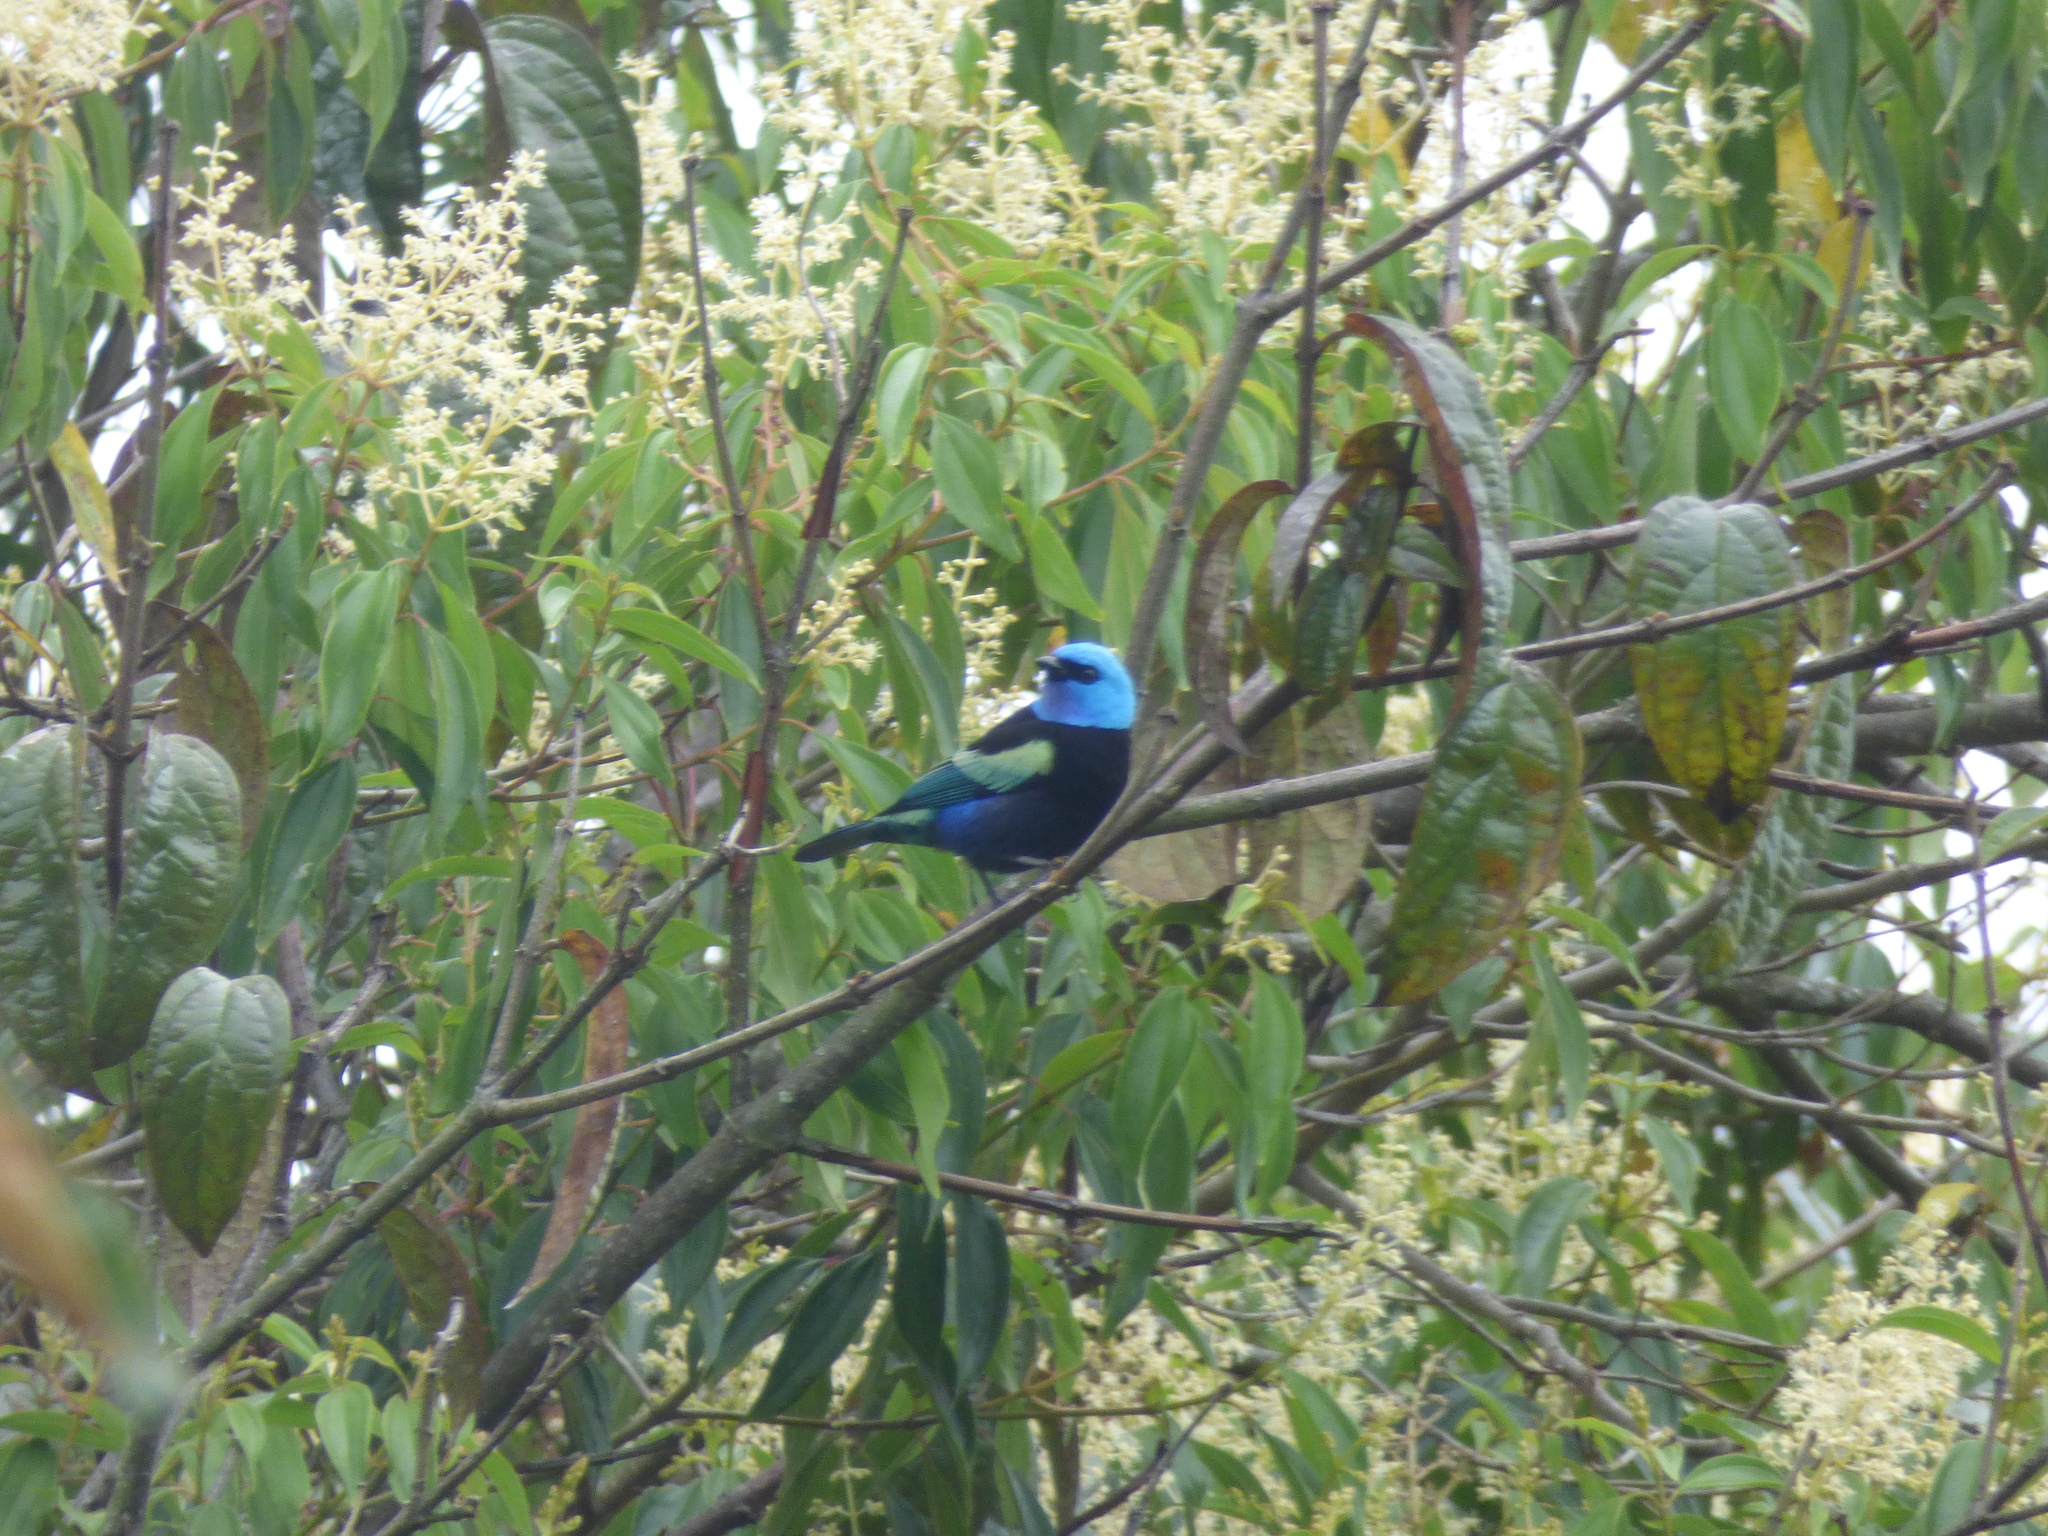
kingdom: Animalia
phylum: Chordata
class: Aves
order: Passeriformes
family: Thraupidae
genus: Stilpnia
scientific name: Stilpnia cyanicollis
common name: Blue-necked tanager
